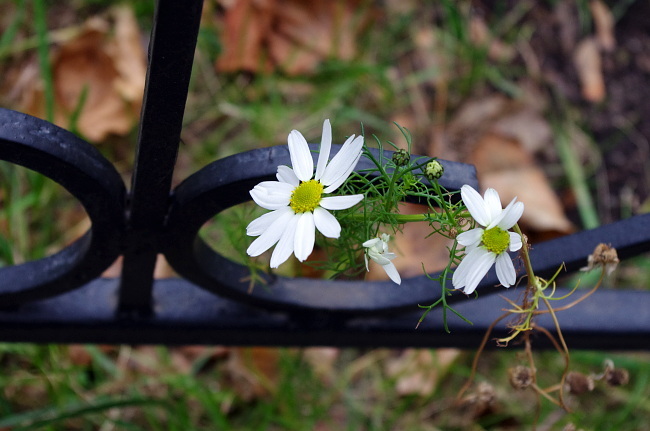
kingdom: Plantae
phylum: Tracheophyta
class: Magnoliopsida
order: Asterales
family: Asteraceae
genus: Tripleurospermum
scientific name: Tripleurospermum inodorum
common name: Scentless mayweed
